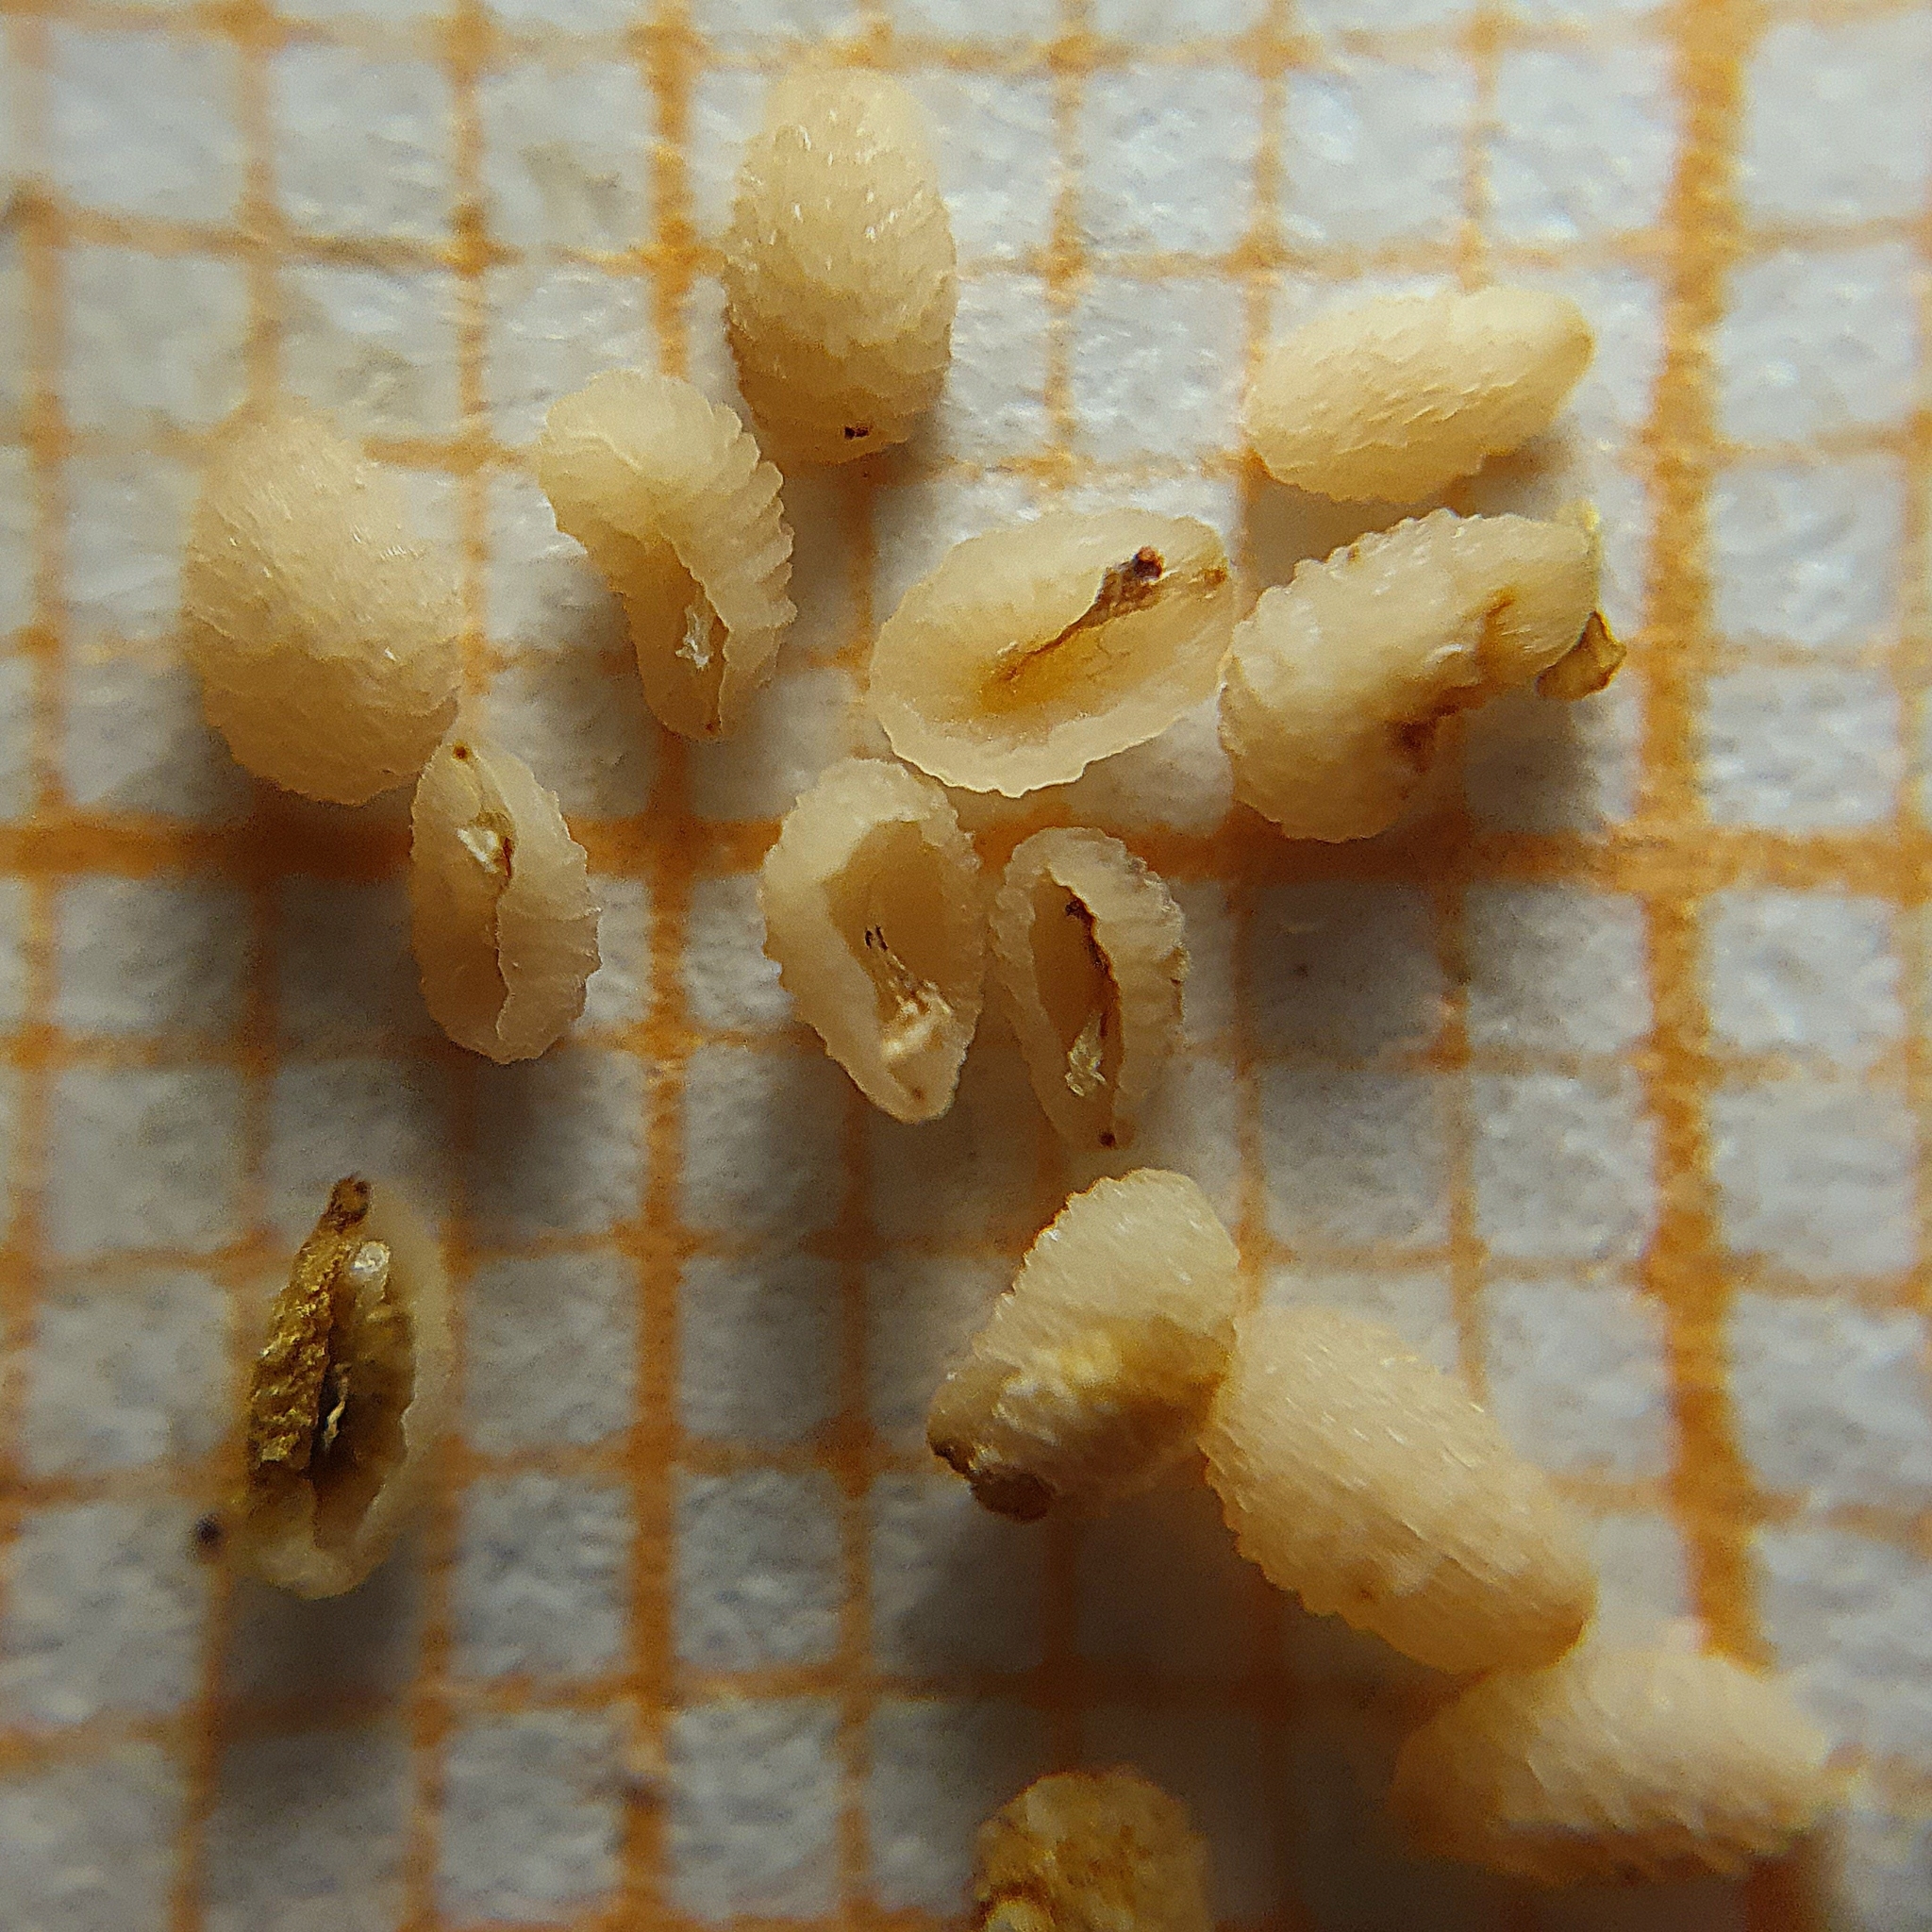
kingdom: Plantae
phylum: Tracheophyta
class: Magnoliopsida
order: Lamiales
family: Plantaginaceae
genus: Veronica
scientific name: Veronica persica
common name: Common field-speedwell
